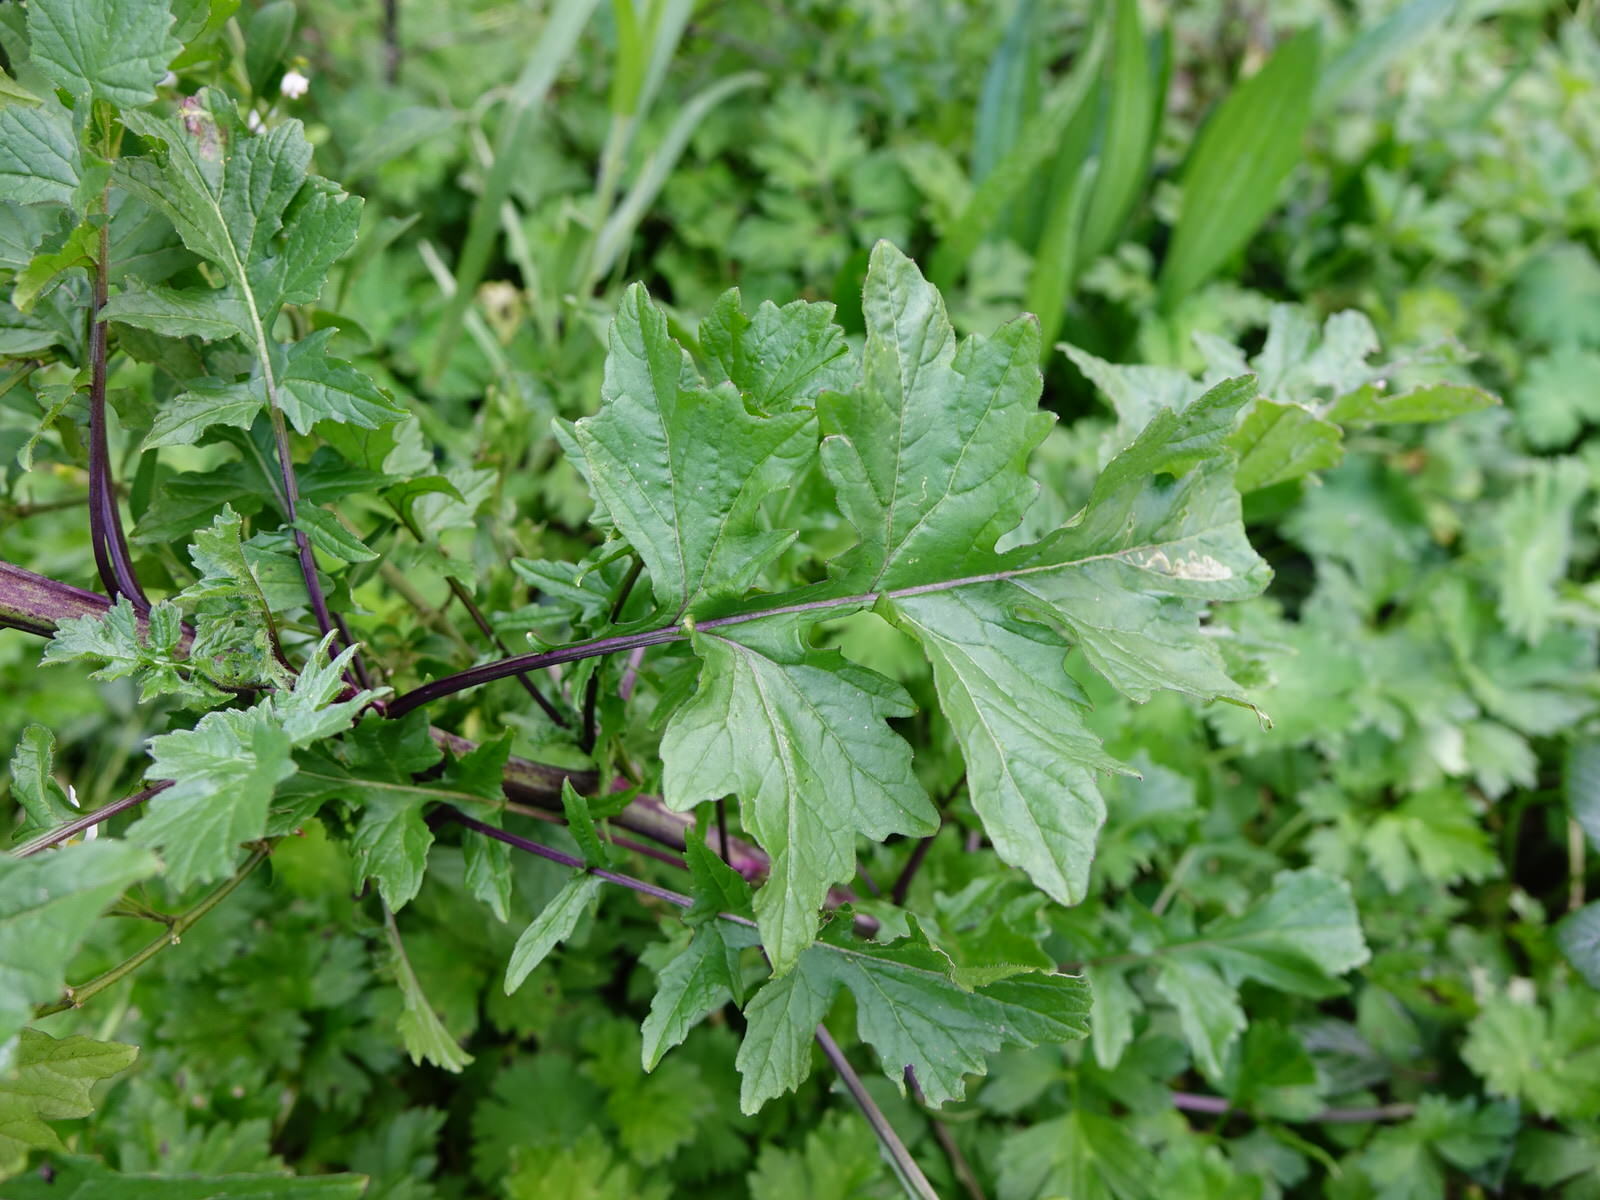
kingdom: Plantae
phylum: Tracheophyta
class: Magnoliopsida
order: Brassicales
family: Brassicaceae
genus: Sisymbrium
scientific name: Sisymbrium officinale
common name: Hedge mustard
